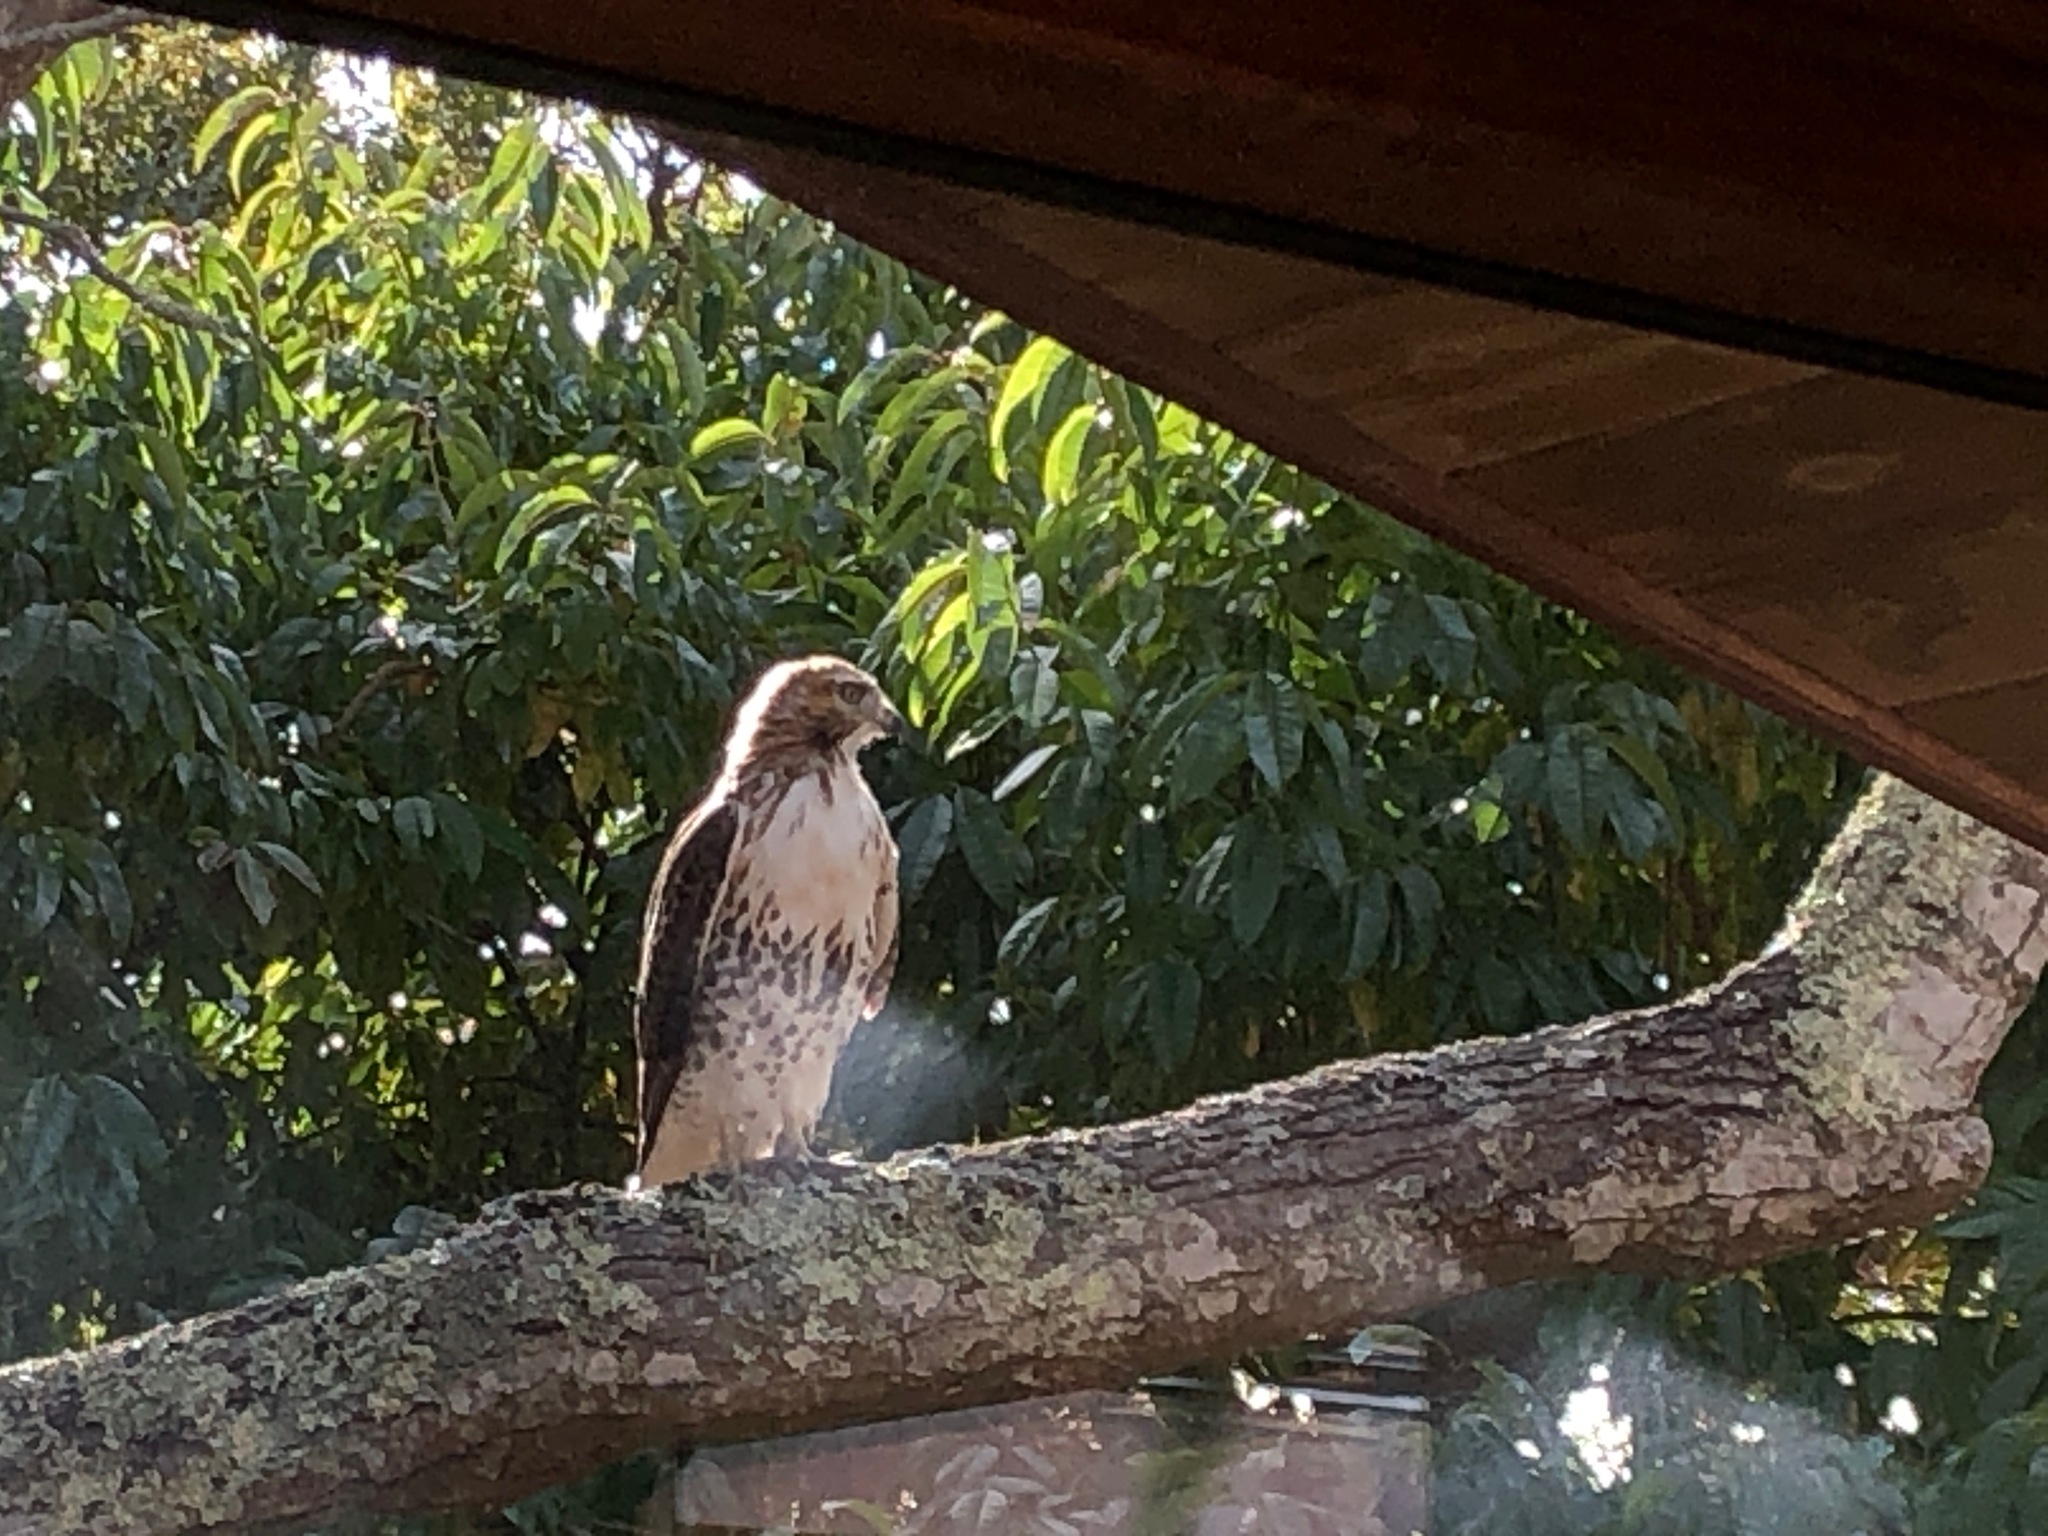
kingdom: Animalia
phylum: Chordata
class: Aves
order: Accipitriformes
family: Accipitridae
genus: Buteo
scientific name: Buteo jamaicensis
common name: Red-tailed hawk
